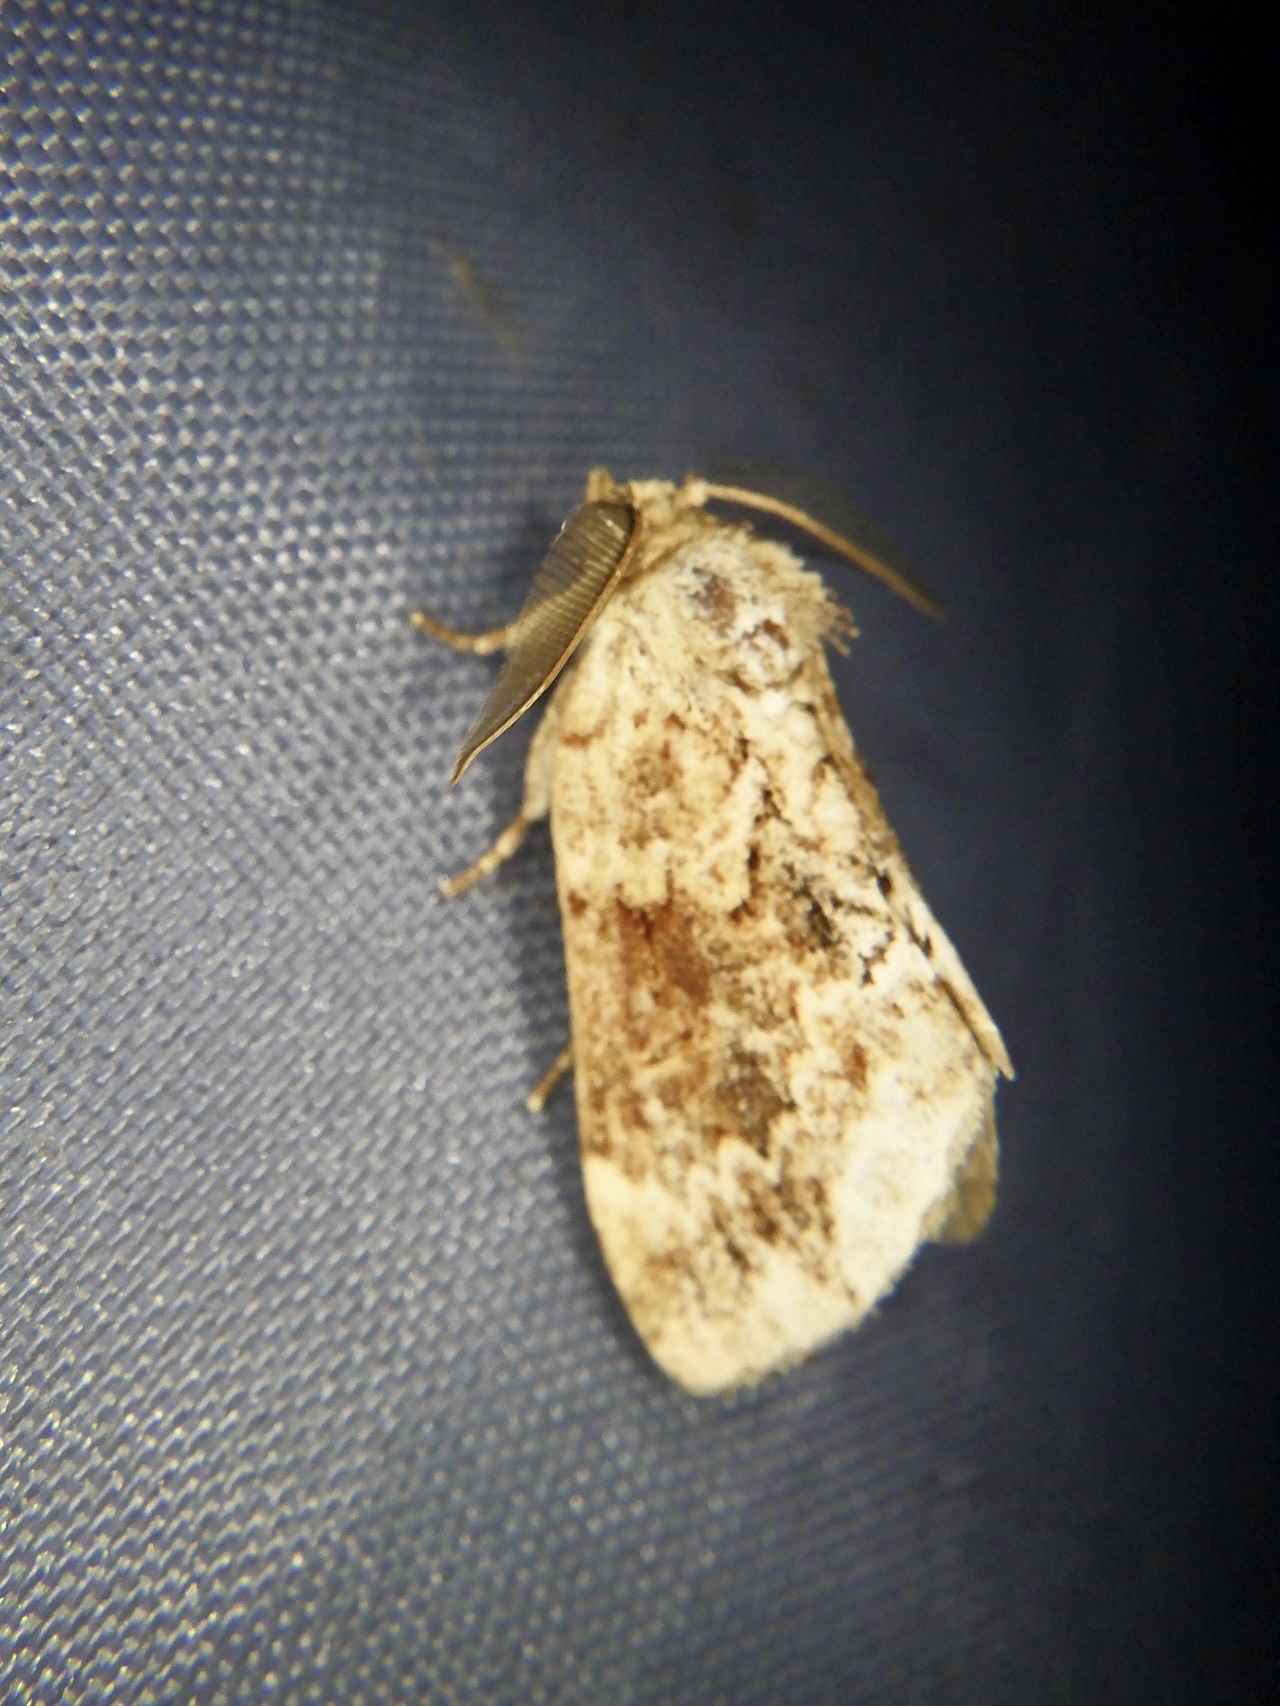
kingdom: Animalia
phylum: Arthropoda
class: Insecta
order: Lepidoptera
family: Notodontidae
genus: Lophontosia
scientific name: Lophontosia
